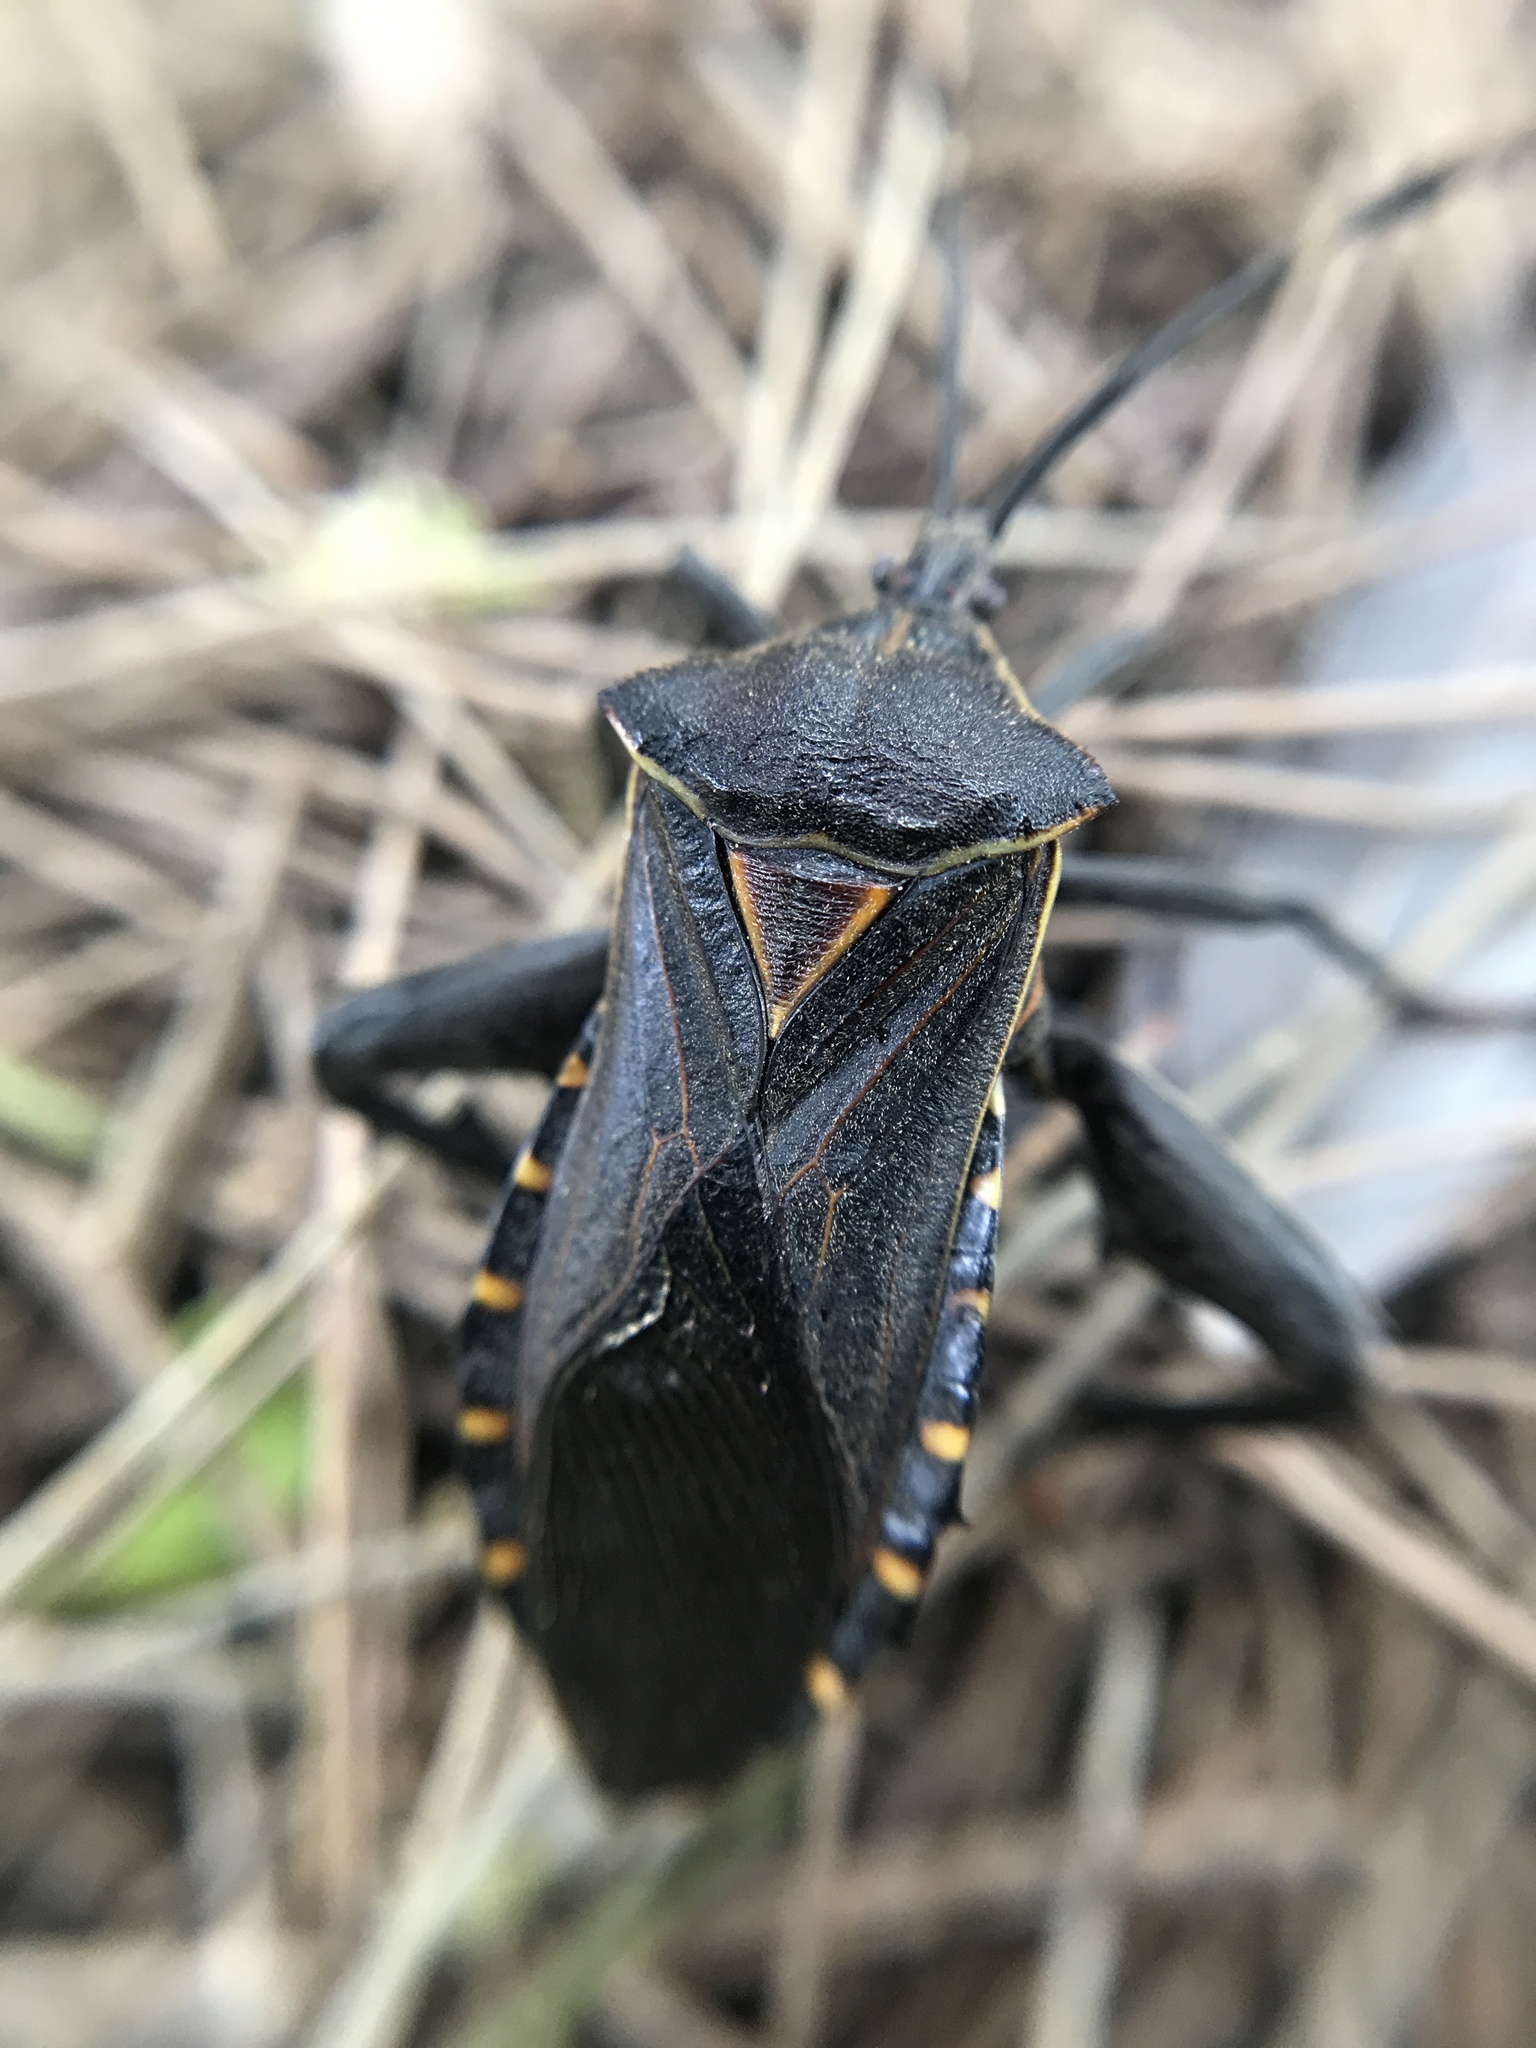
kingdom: Animalia
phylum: Arthropoda
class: Insecta
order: Hemiptera
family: Coreidae
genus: Pachylis
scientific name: Pachylis argentinus
